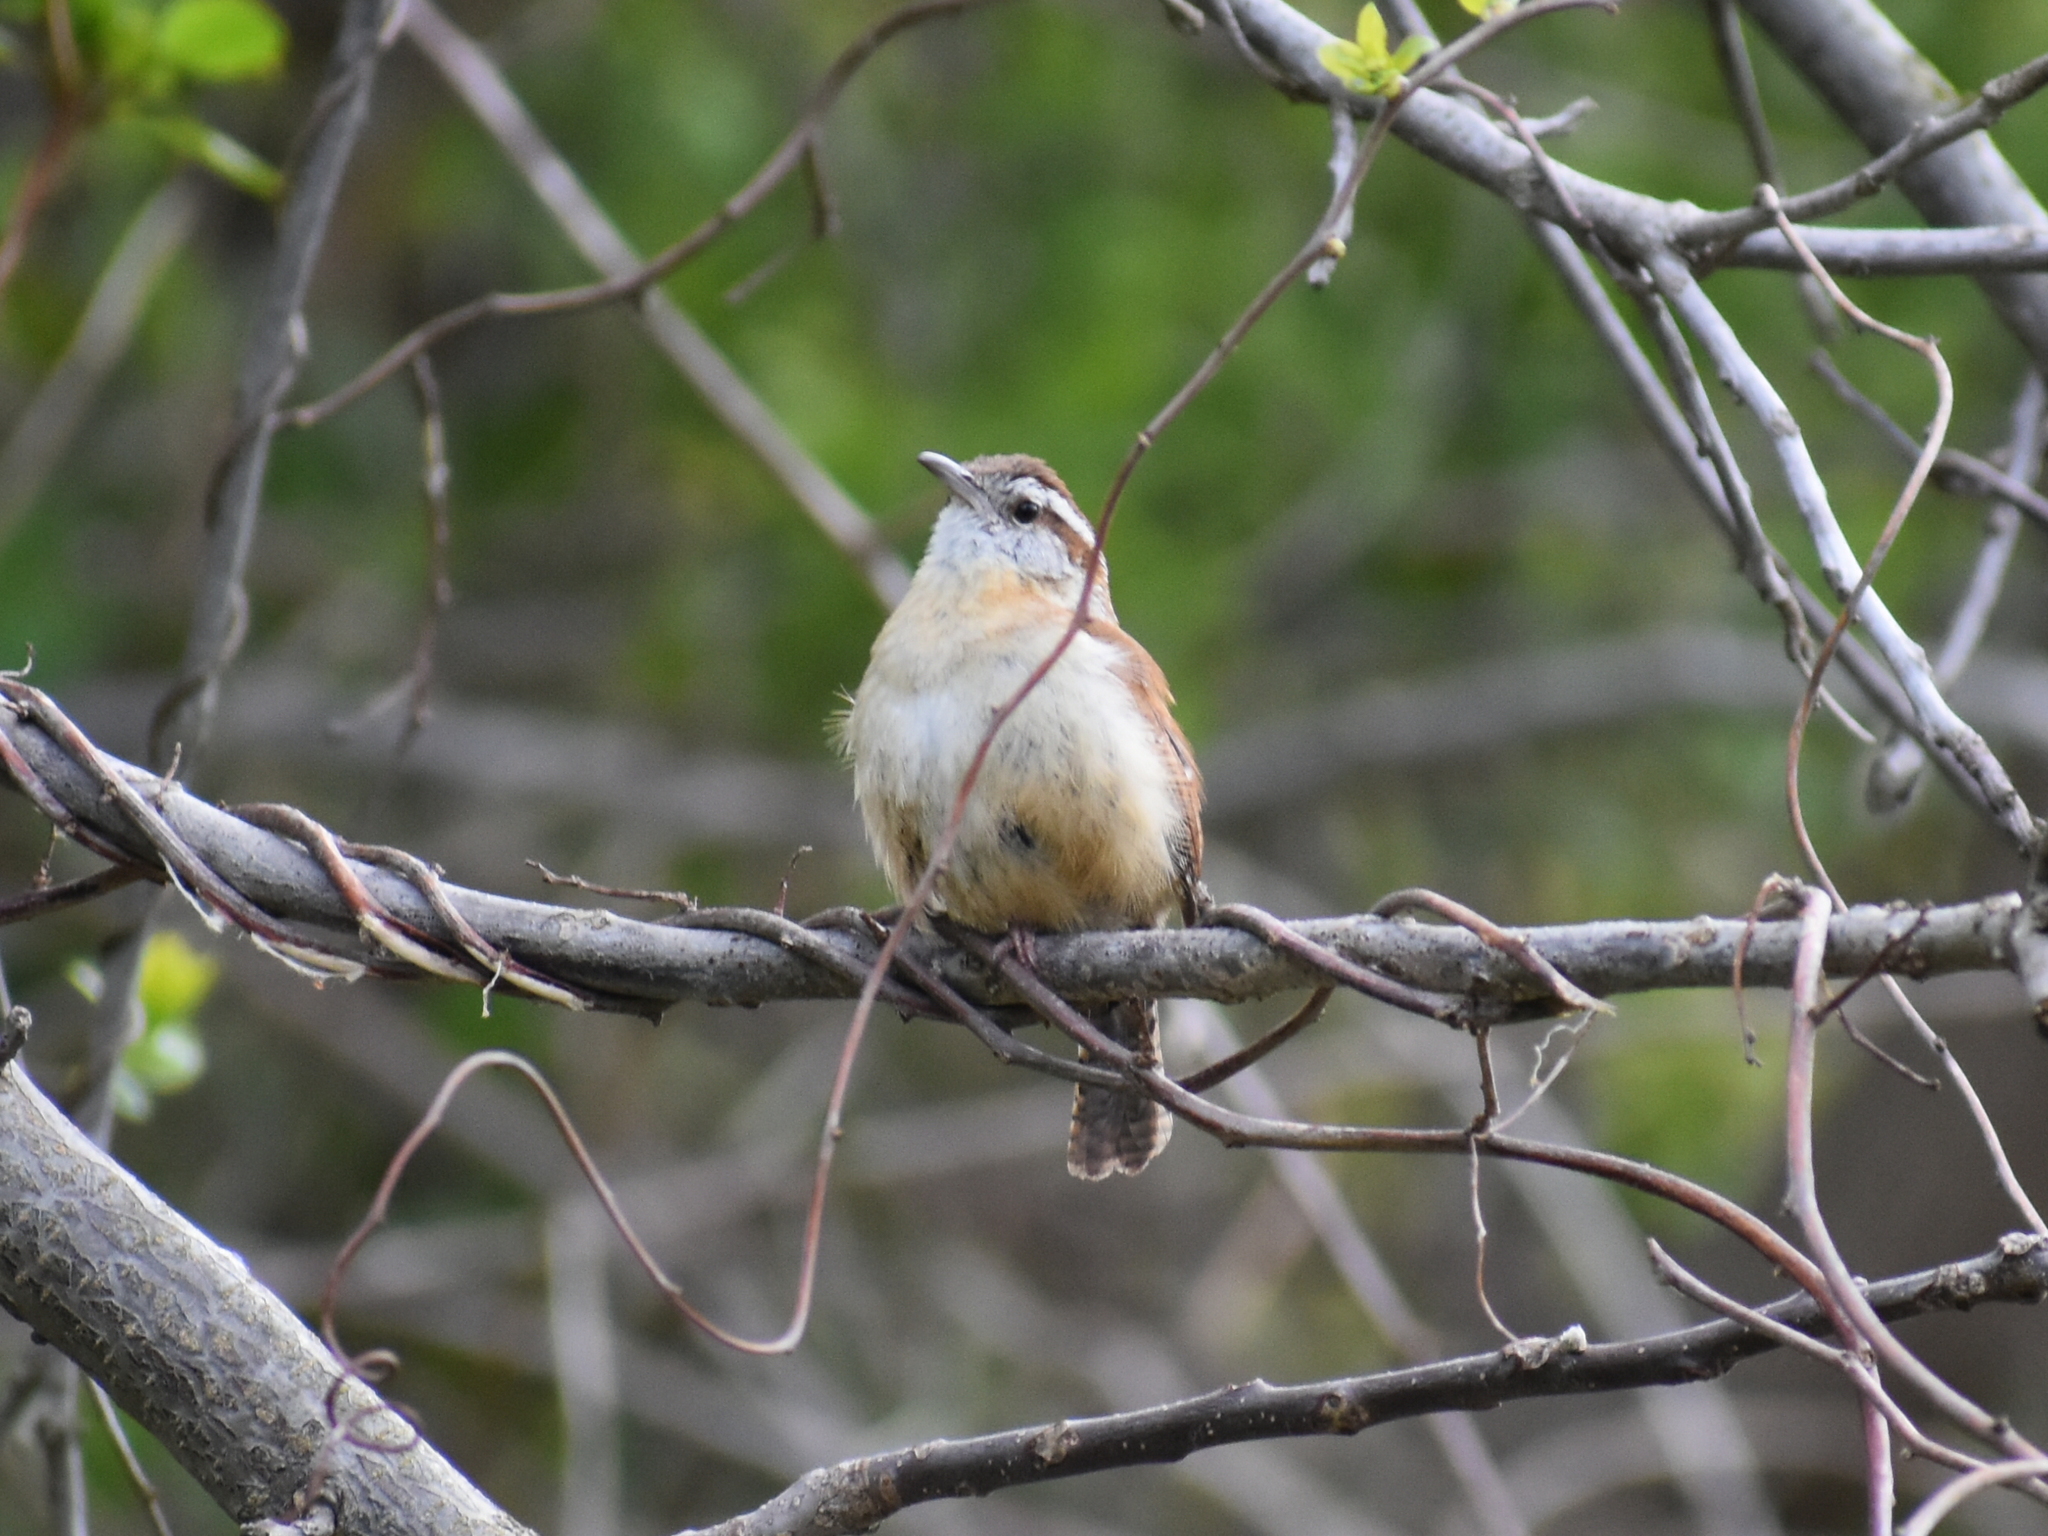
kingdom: Animalia
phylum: Chordata
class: Aves
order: Passeriformes
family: Troglodytidae
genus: Thryothorus
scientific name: Thryothorus ludovicianus
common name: Carolina wren
